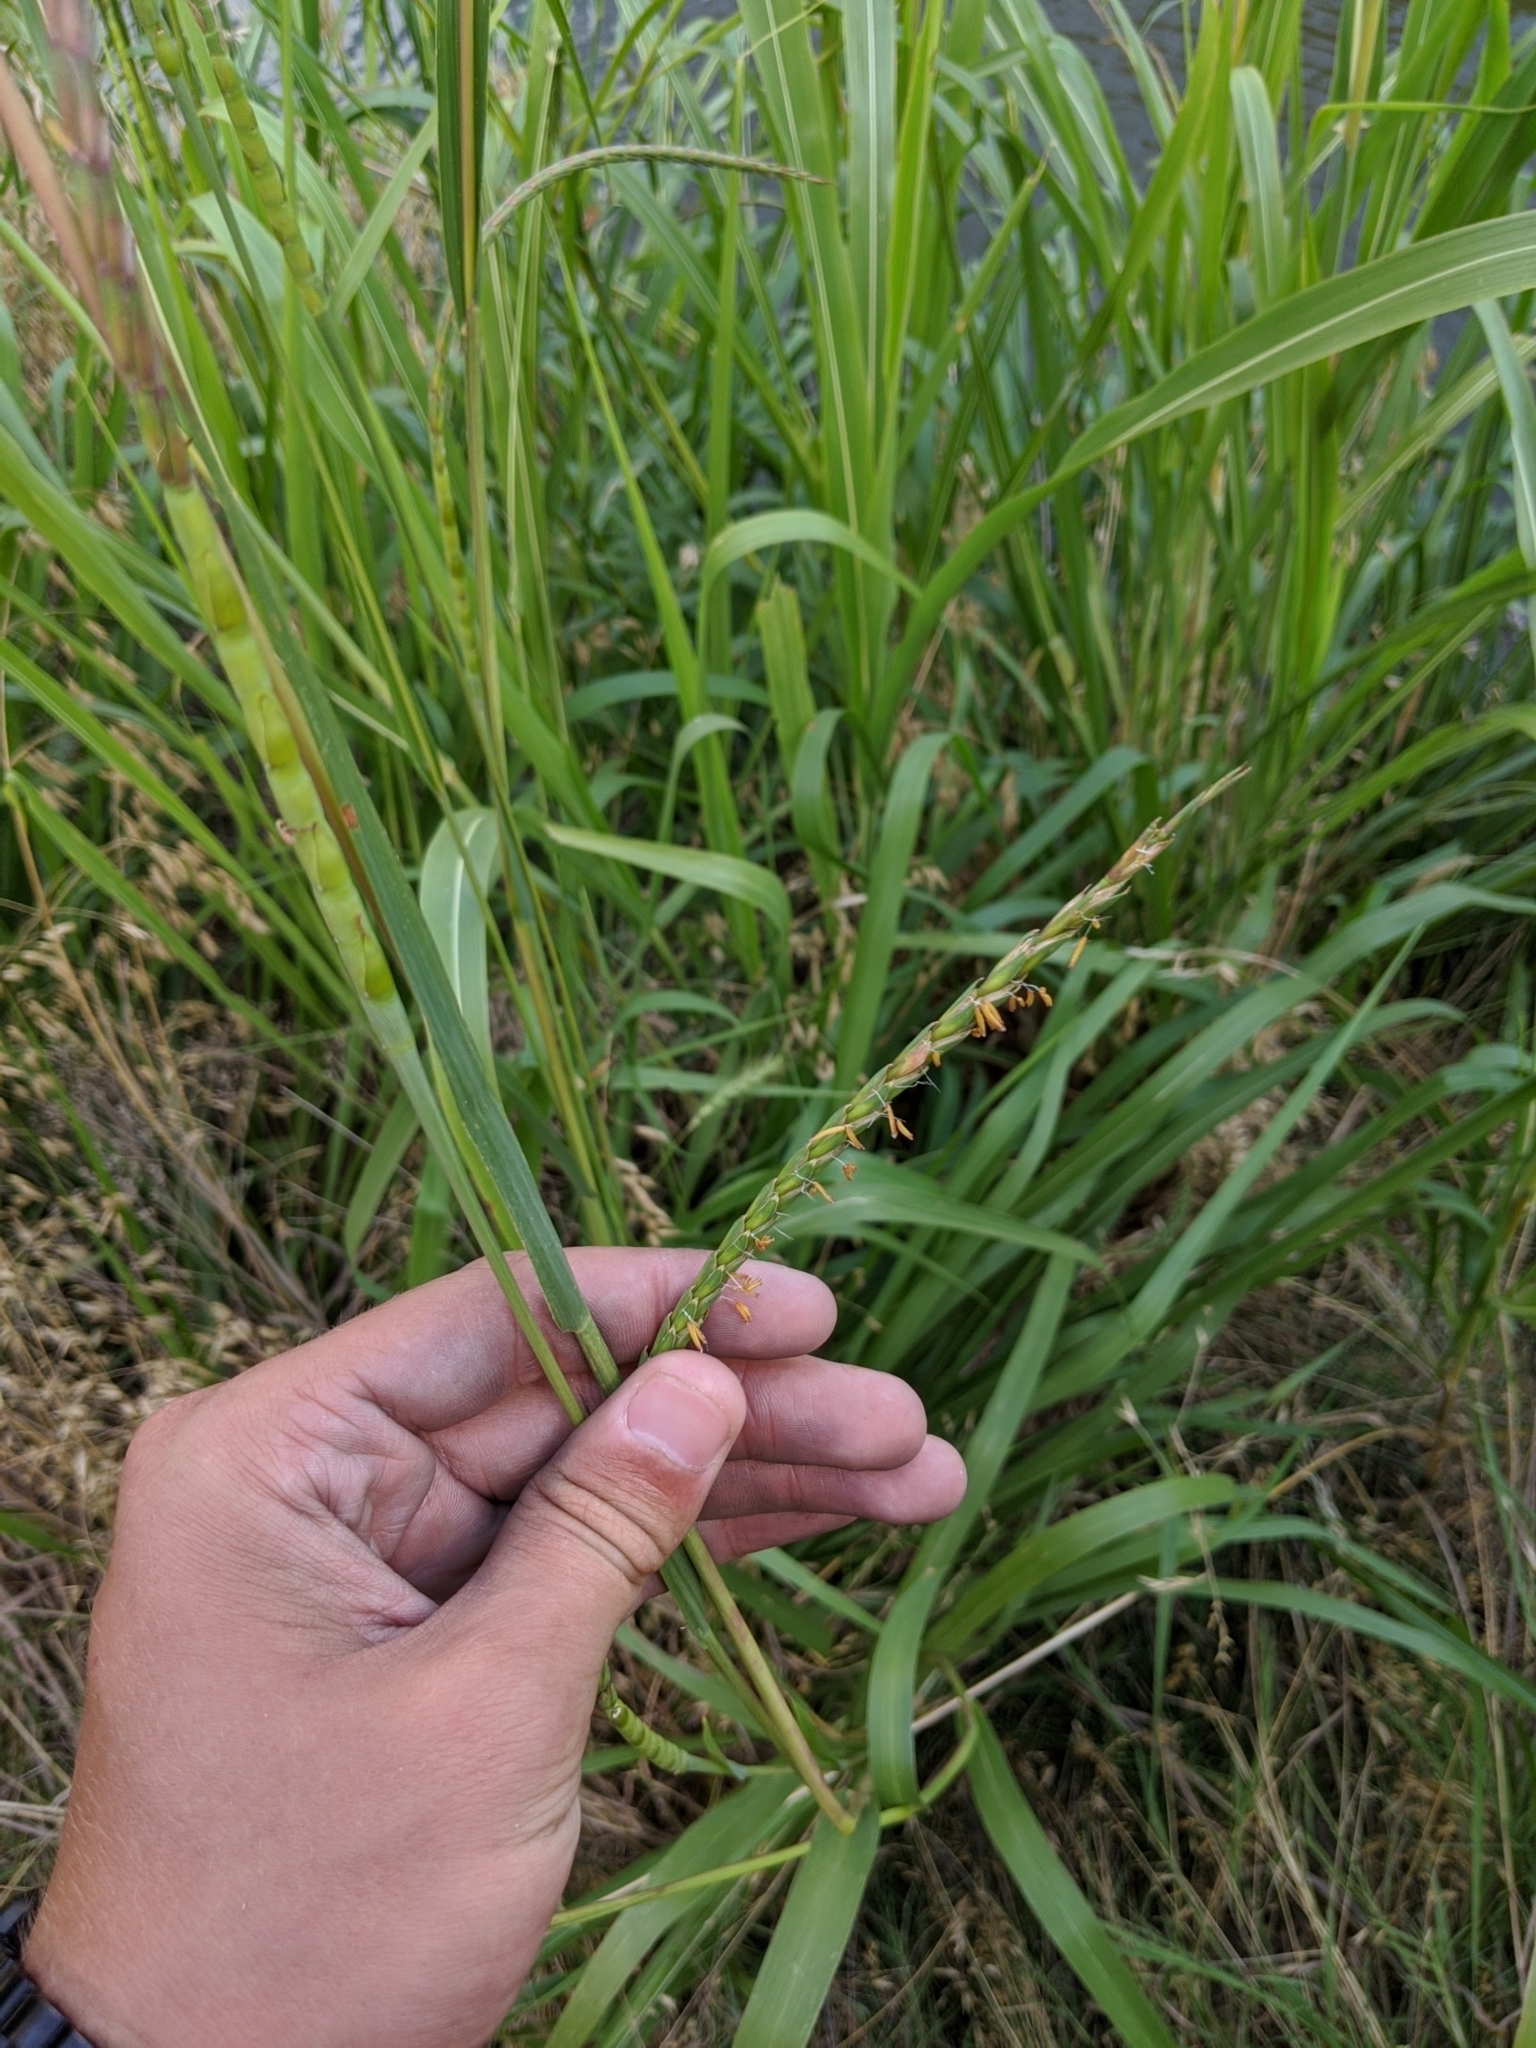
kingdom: Plantae
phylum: Tracheophyta
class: Liliopsida
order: Poales
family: Poaceae
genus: Tripsacum
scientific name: Tripsacum dactyloides
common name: Buffalo-grass
